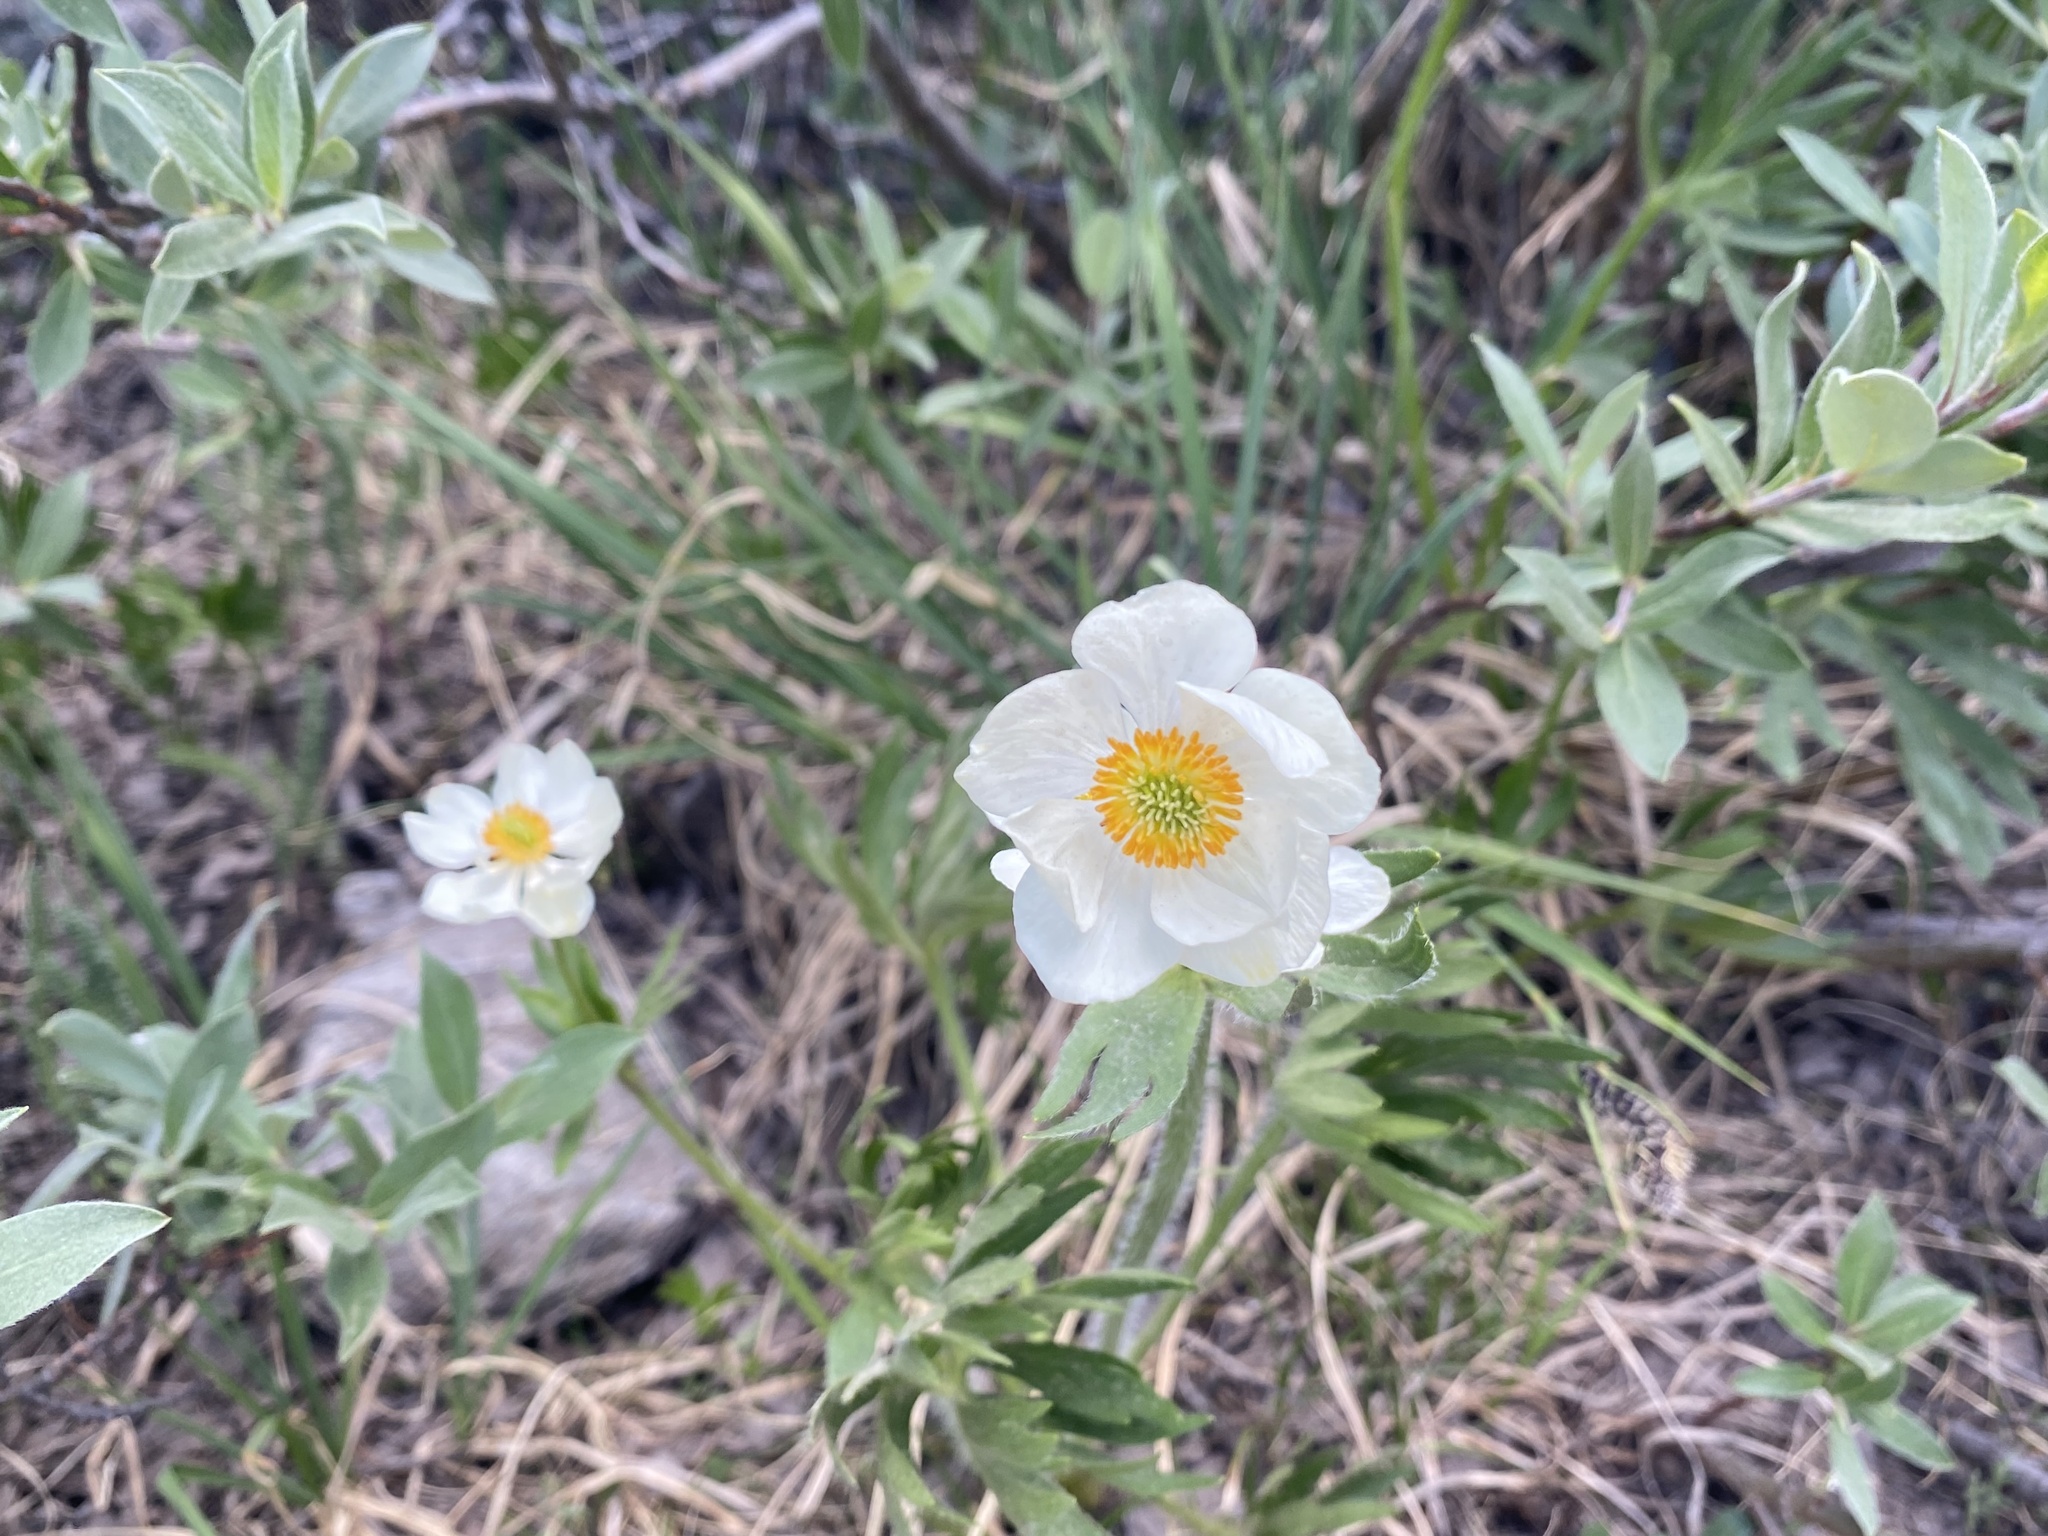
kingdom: Plantae
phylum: Tracheophyta
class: Magnoliopsida
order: Ranunculales
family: Ranunculaceae
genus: Anemonastrum
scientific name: Anemonastrum narcissiflorum
